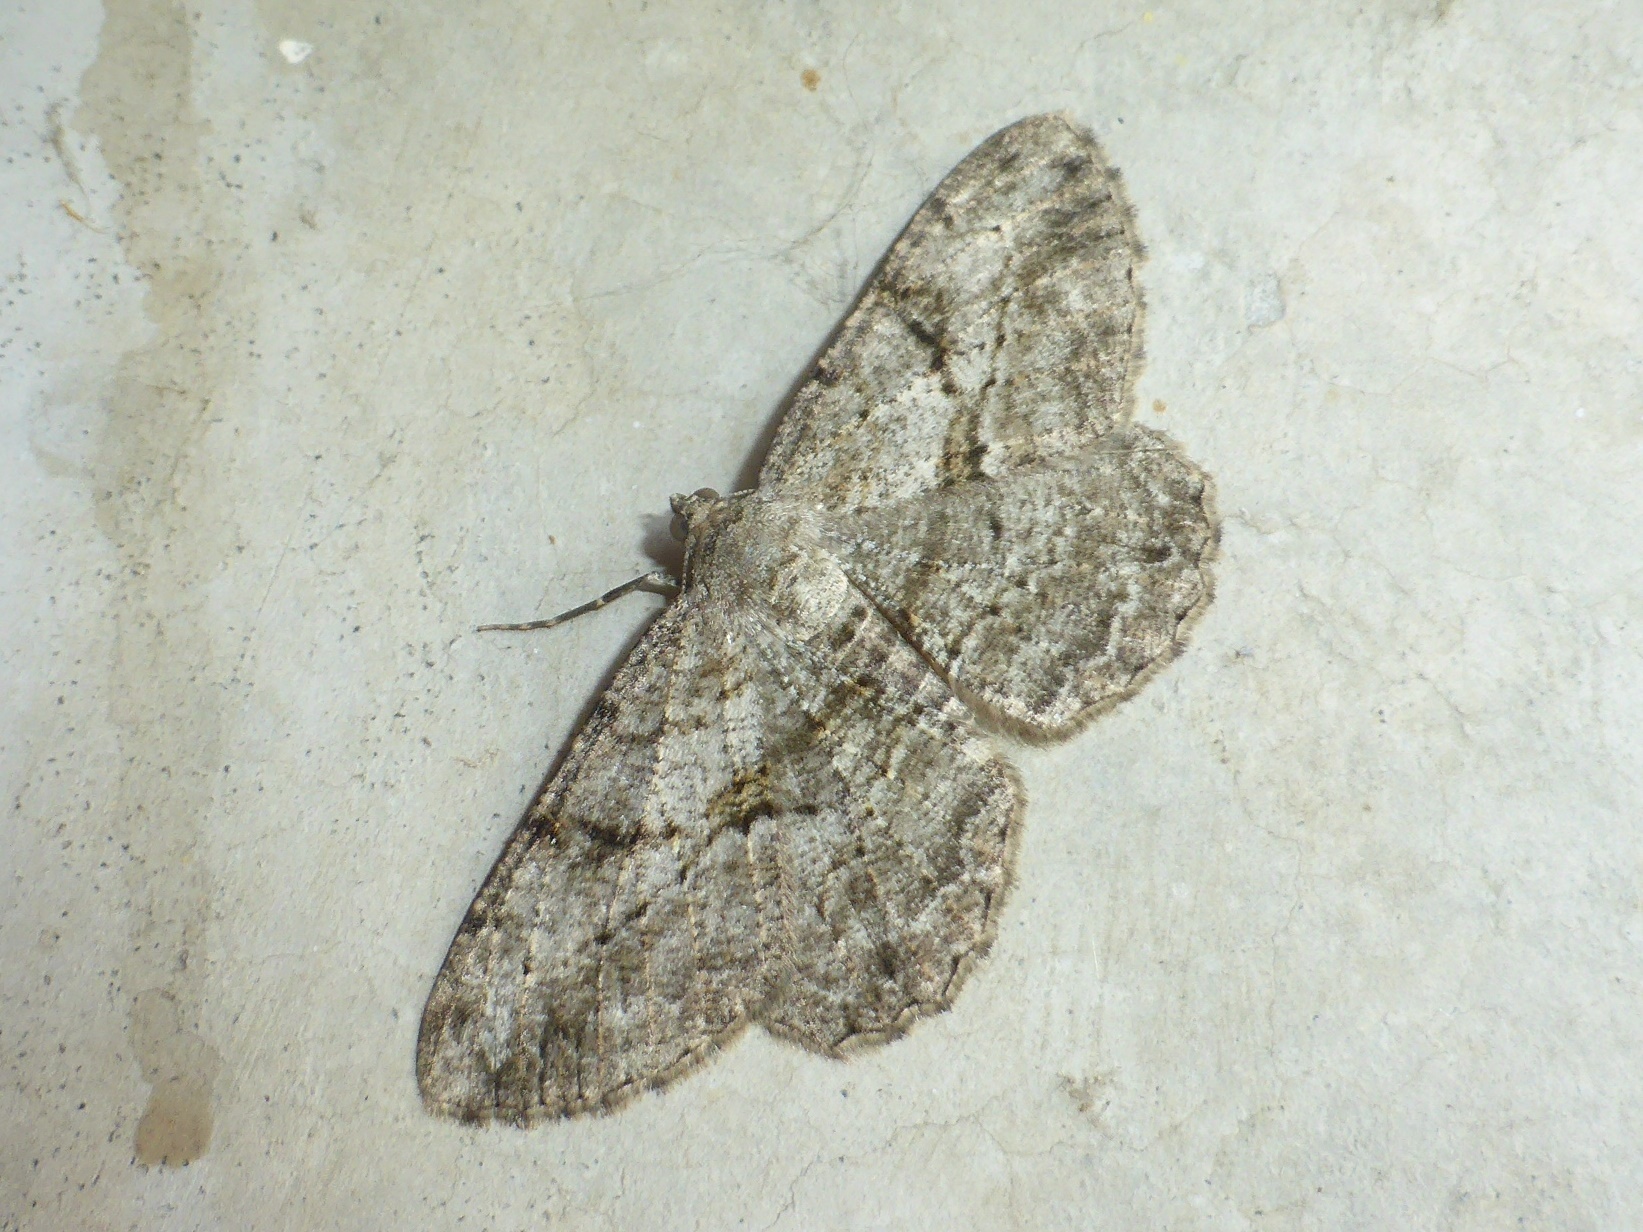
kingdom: Animalia
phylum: Arthropoda
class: Insecta
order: Lepidoptera
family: Geometridae
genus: Peribatodes
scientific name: Peribatodes rhomboidaria
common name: Willow beauty
